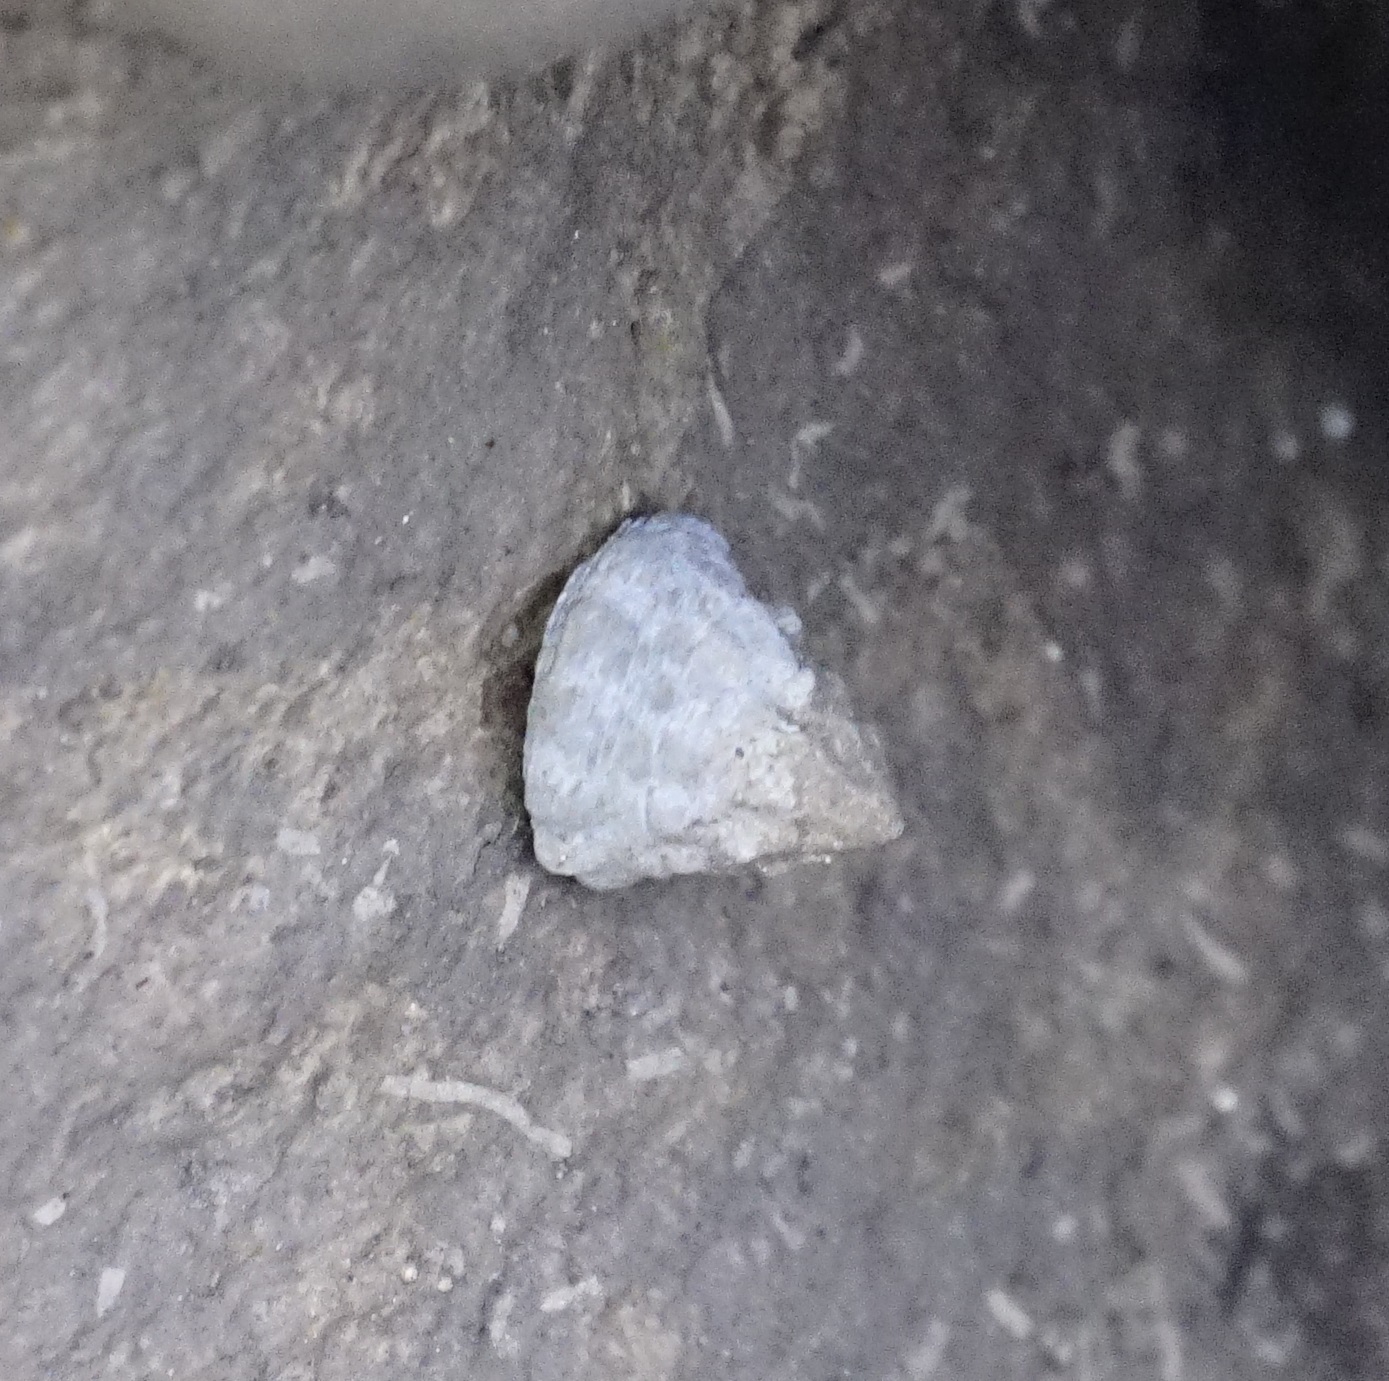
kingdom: Animalia
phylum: Mollusca
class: Gastropoda
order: Littorinimorpha
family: Littorinidae
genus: Bembicium
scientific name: Bembicium auratum
